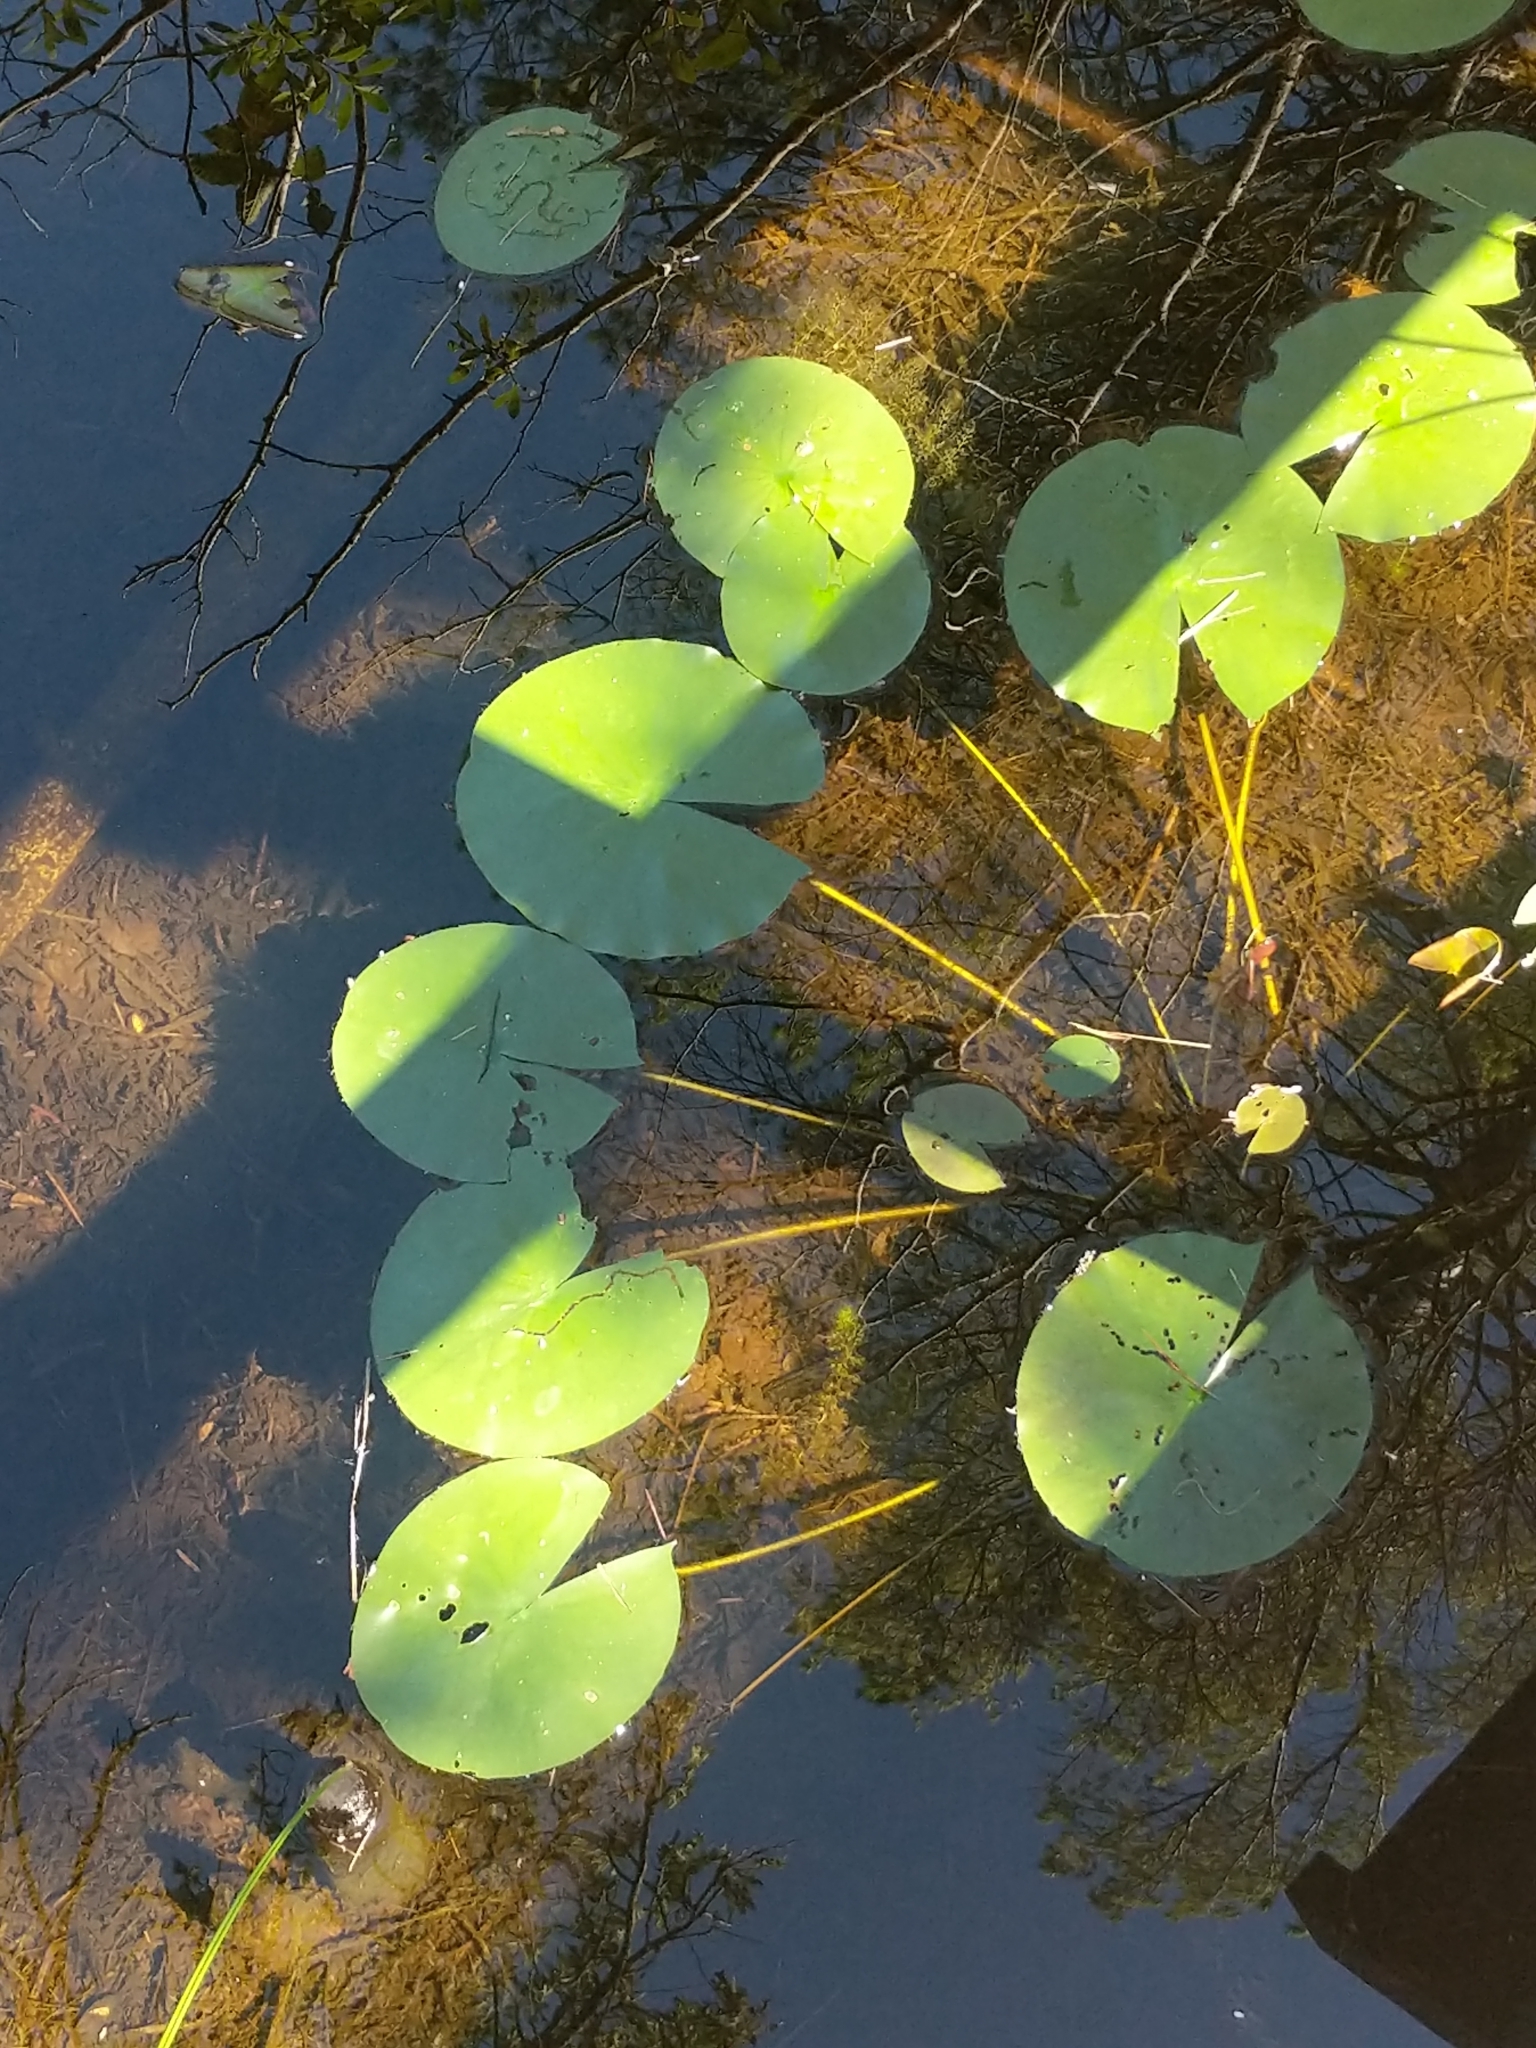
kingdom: Plantae
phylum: Tracheophyta
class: Magnoliopsida
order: Nymphaeales
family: Nymphaeaceae
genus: Nymphaea
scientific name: Nymphaea odorata
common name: Fragrant water-lily
